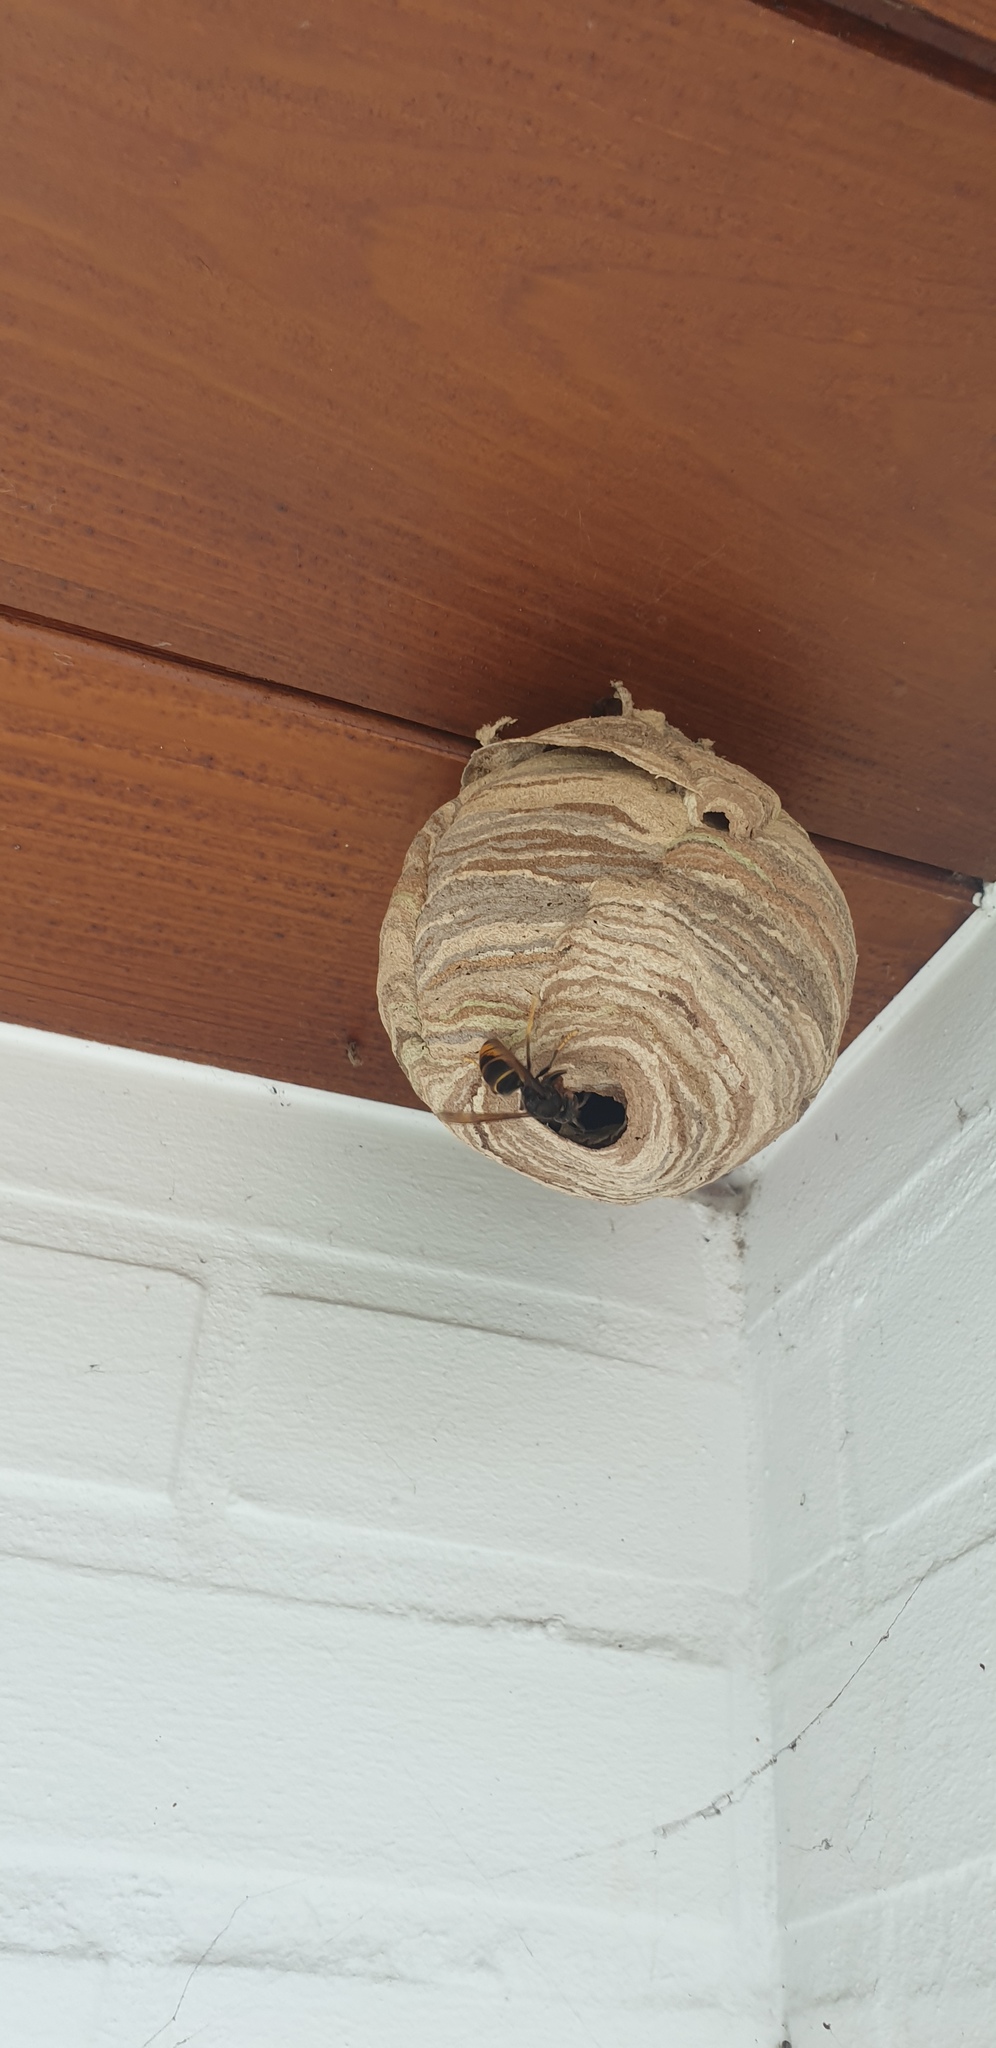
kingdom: Animalia
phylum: Arthropoda
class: Insecta
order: Hymenoptera
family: Vespidae
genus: Vespa
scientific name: Vespa velutina
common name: Asian hornet
